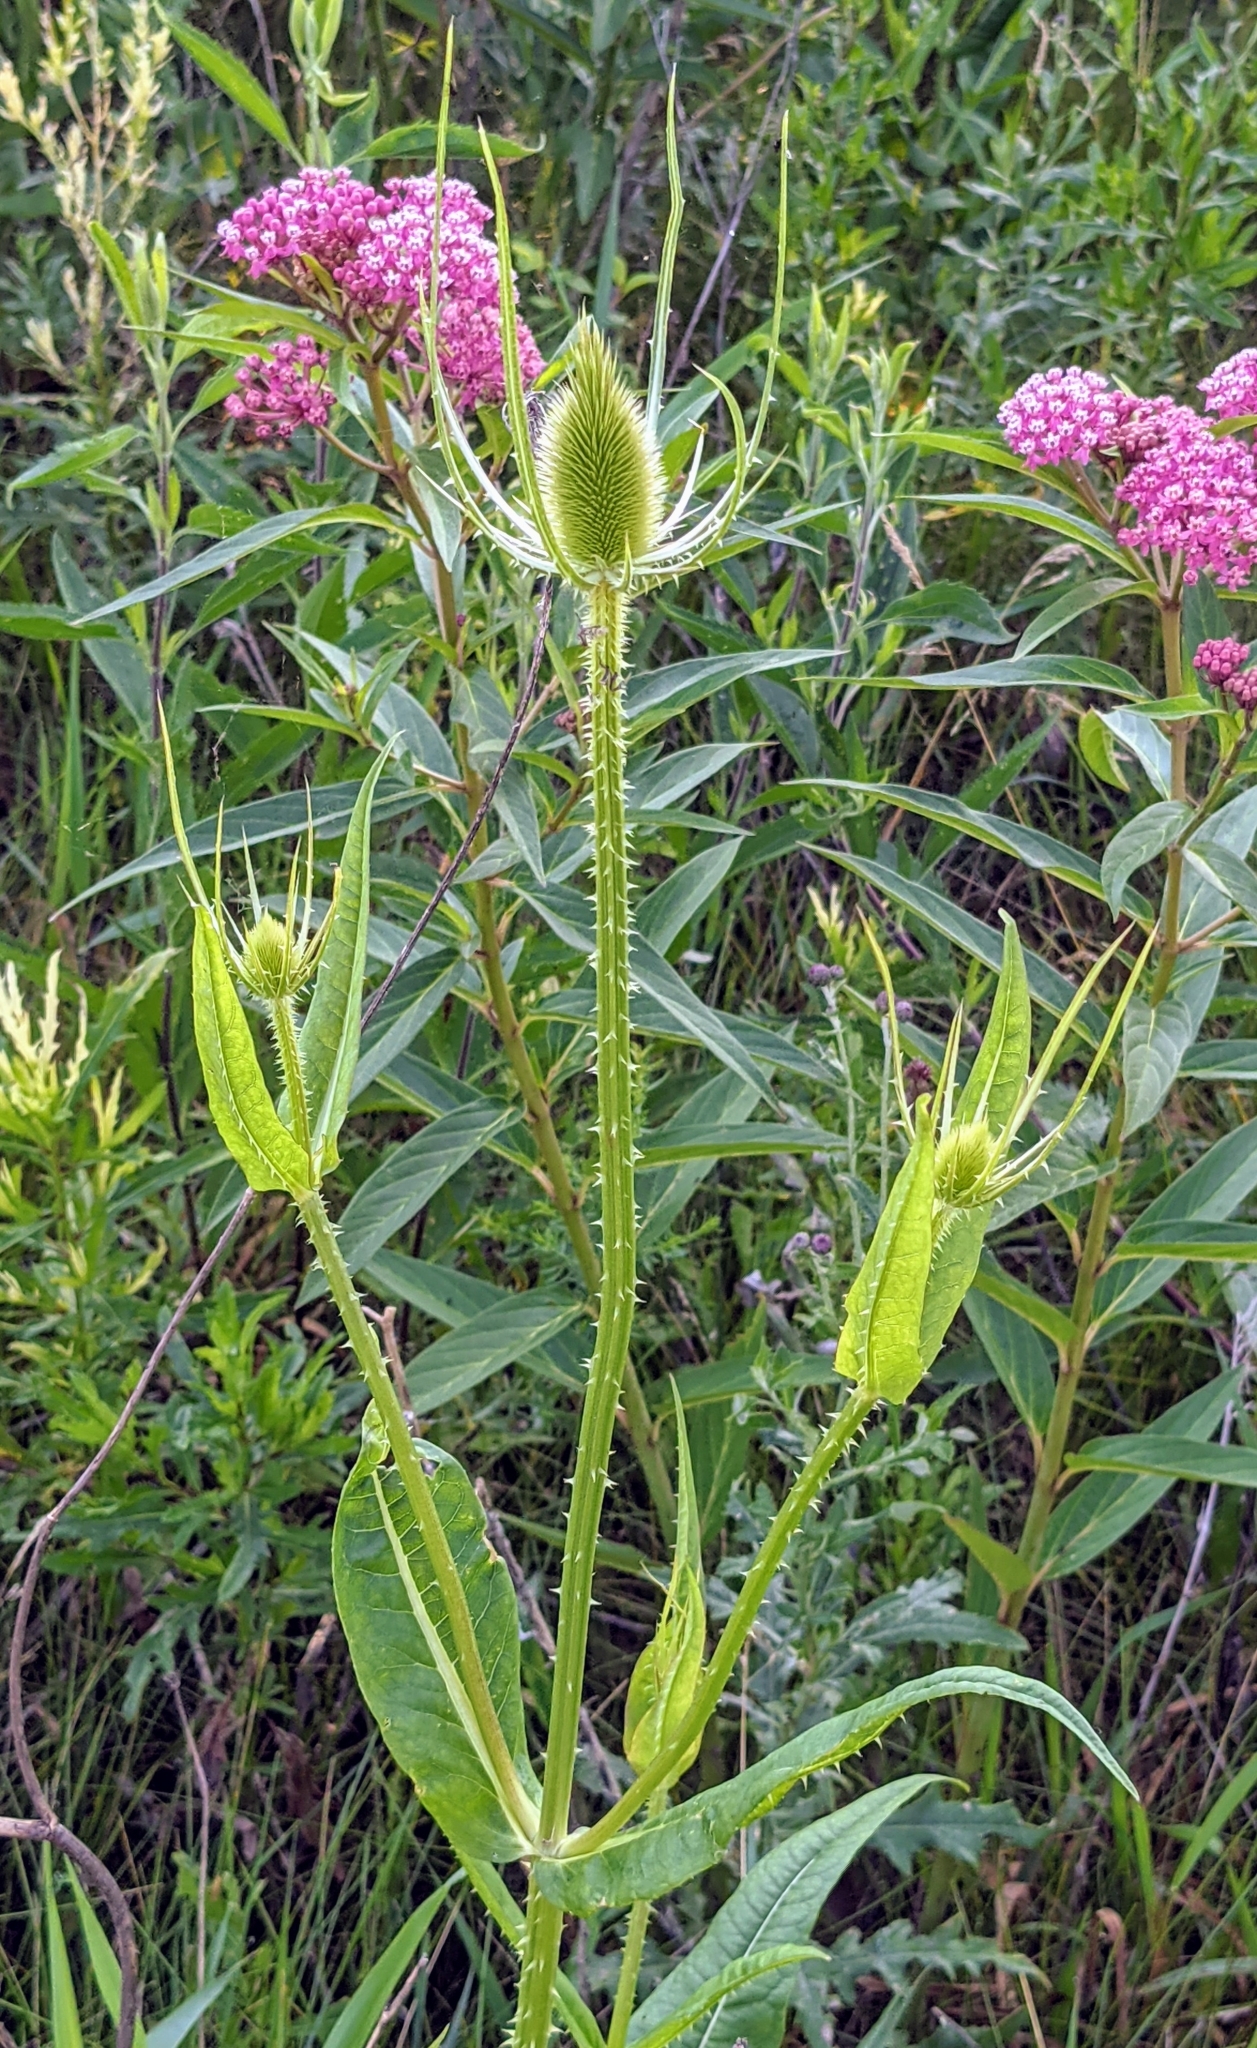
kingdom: Plantae
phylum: Tracheophyta
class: Magnoliopsida
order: Dipsacales
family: Caprifoliaceae
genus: Dipsacus
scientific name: Dipsacus fullonum
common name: Teasel
